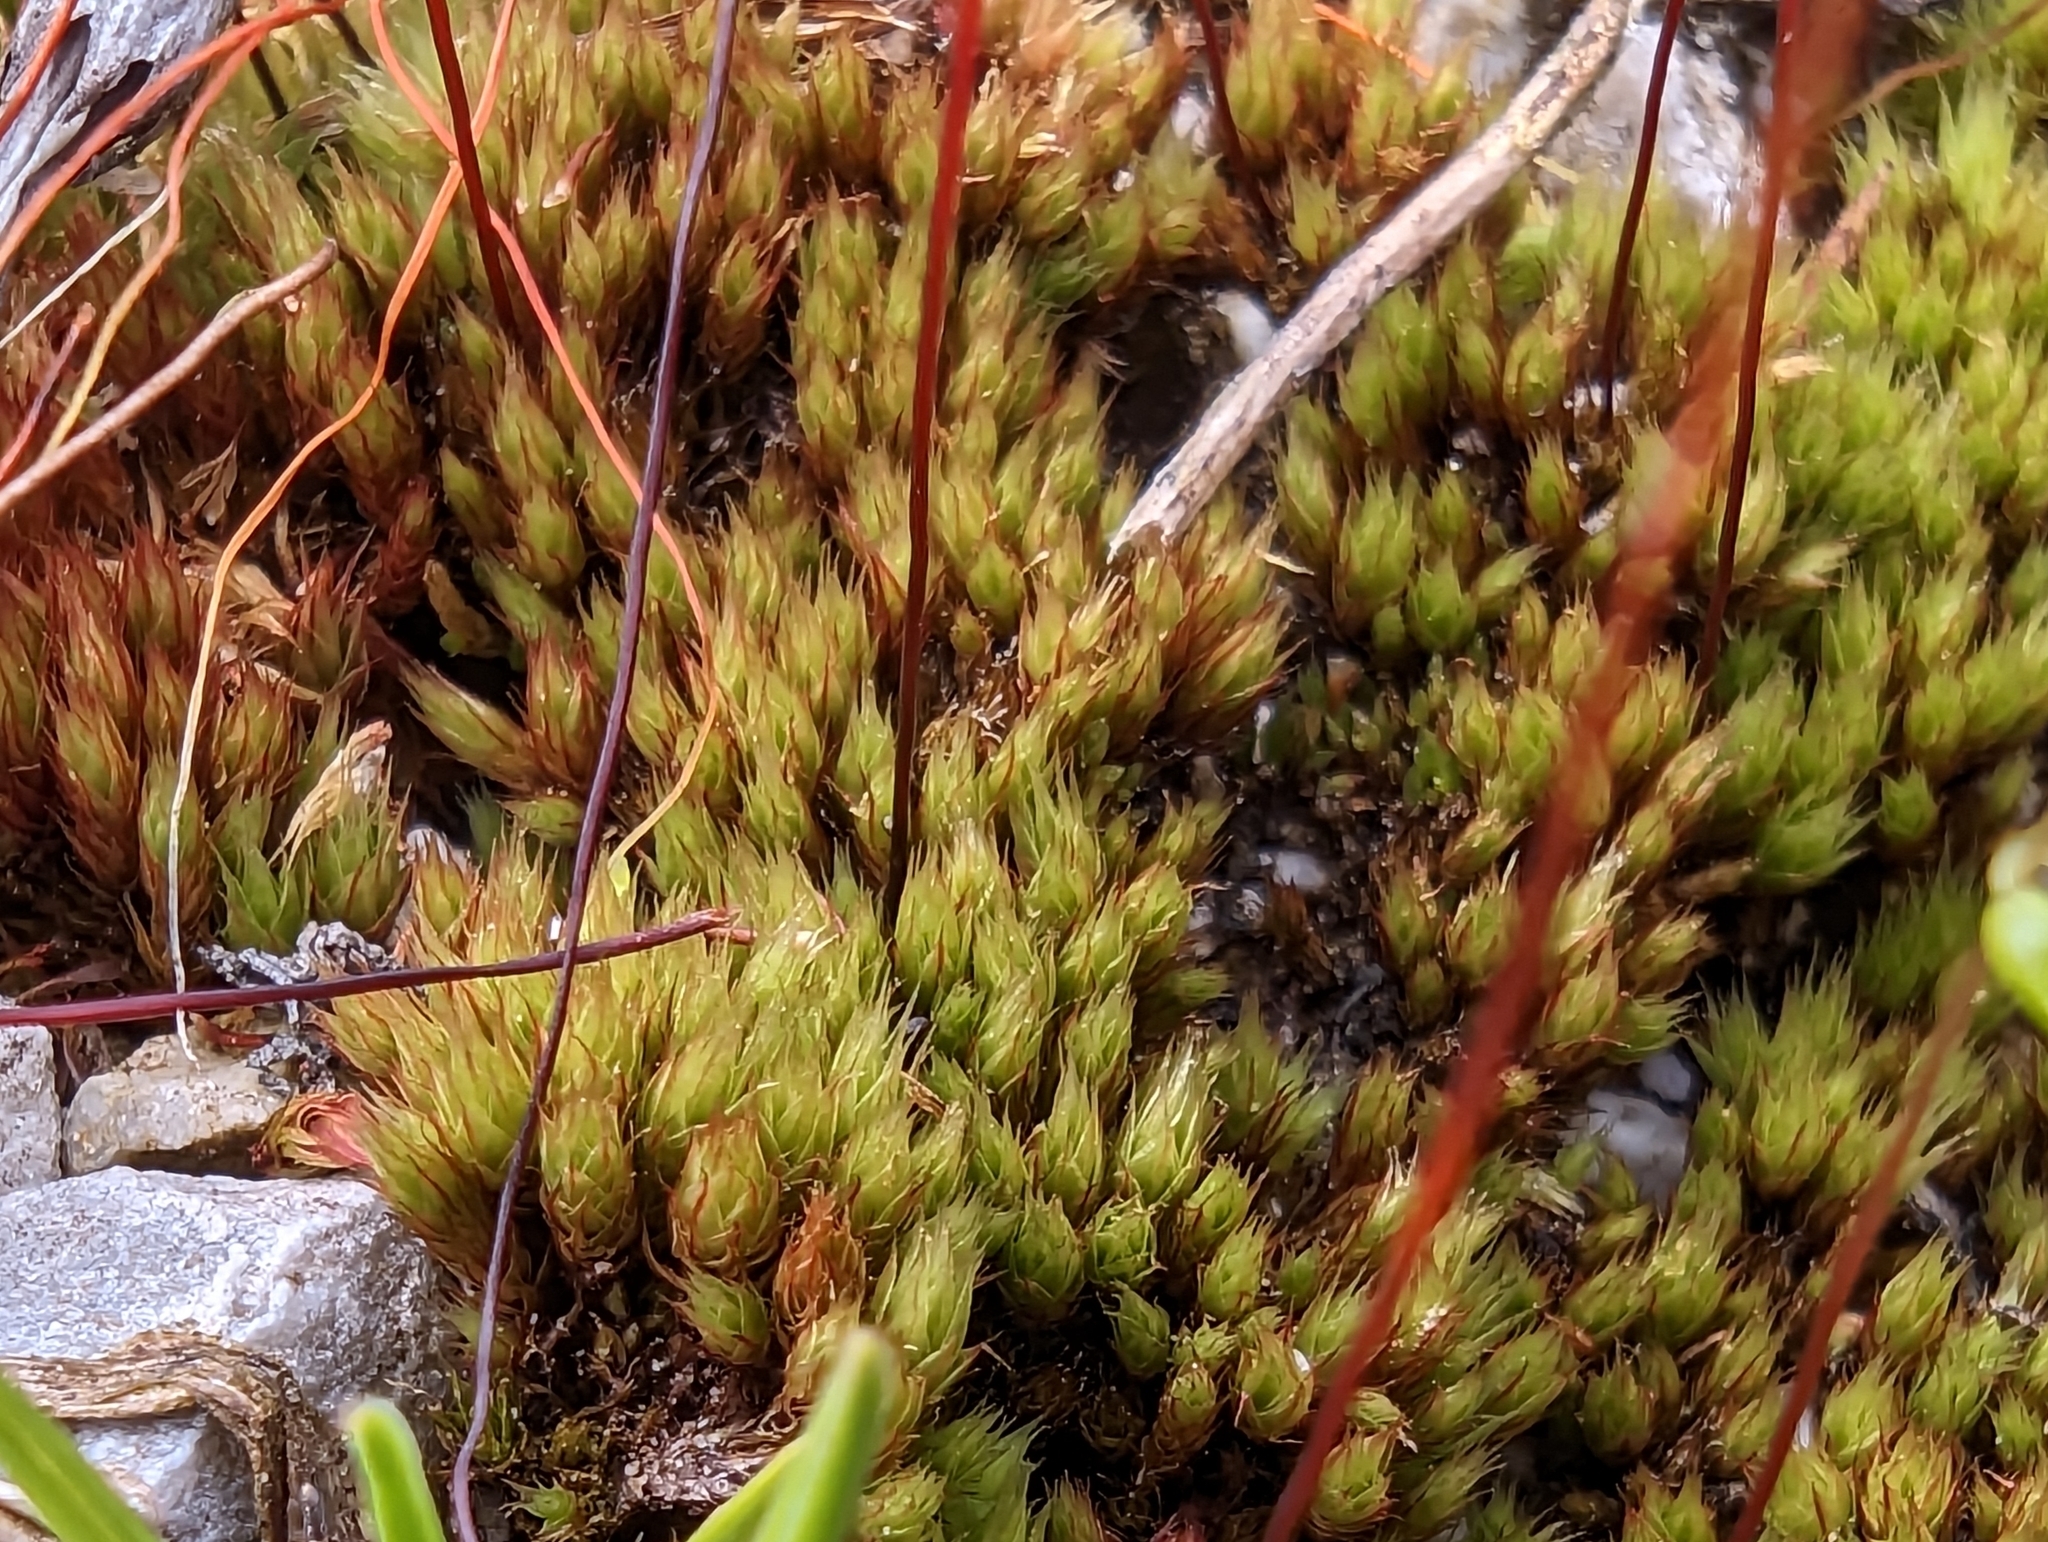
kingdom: Plantae
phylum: Bryophyta
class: Bryopsida
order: Bryales
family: Bryaceae
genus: Gemmabryum
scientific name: Gemmabryum caespiticium
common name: Handbell moss
